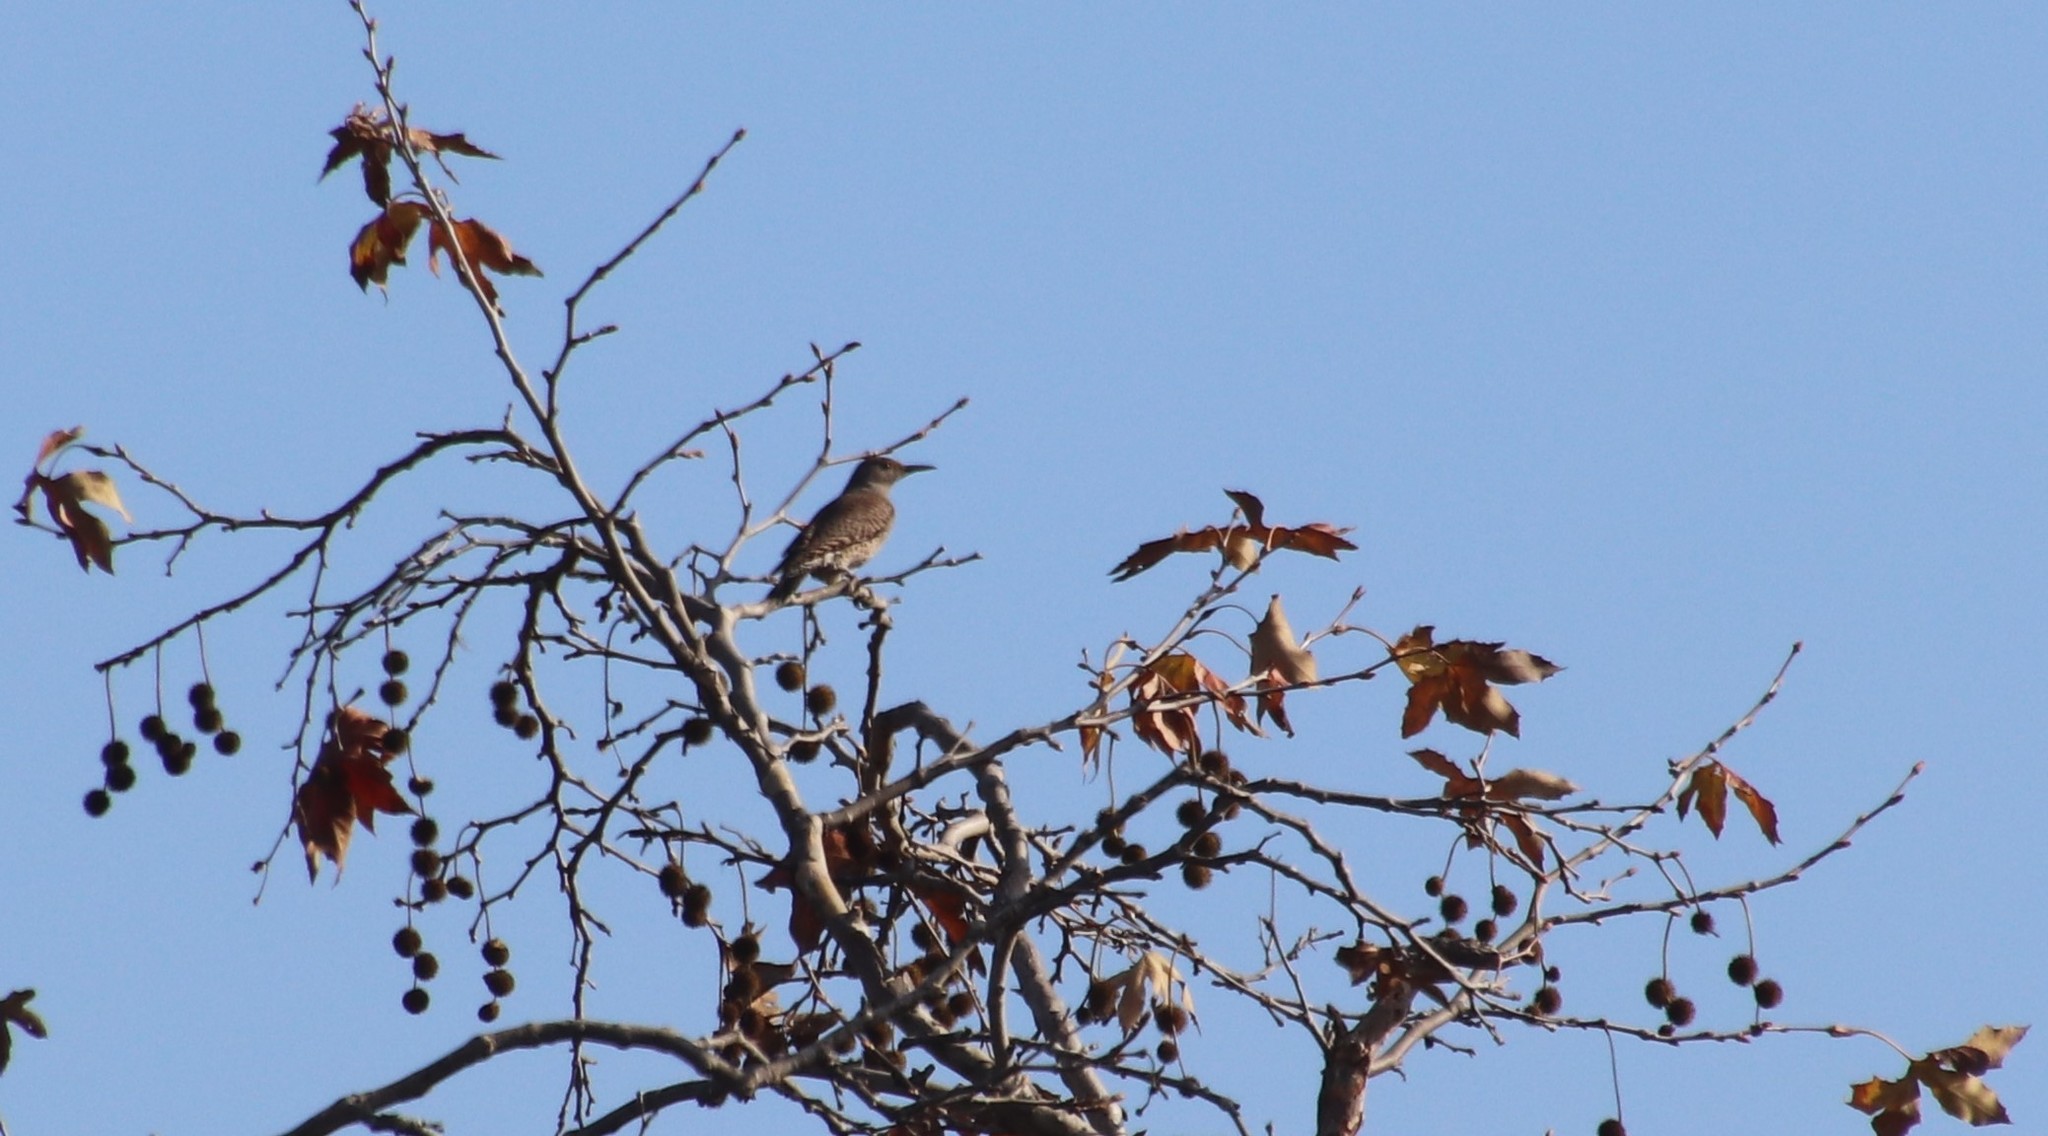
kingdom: Animalia
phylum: Chordata
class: Aves
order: Piciformes
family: Picidae
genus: Colaptes
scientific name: Colaptes auratus
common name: Northern flicker
